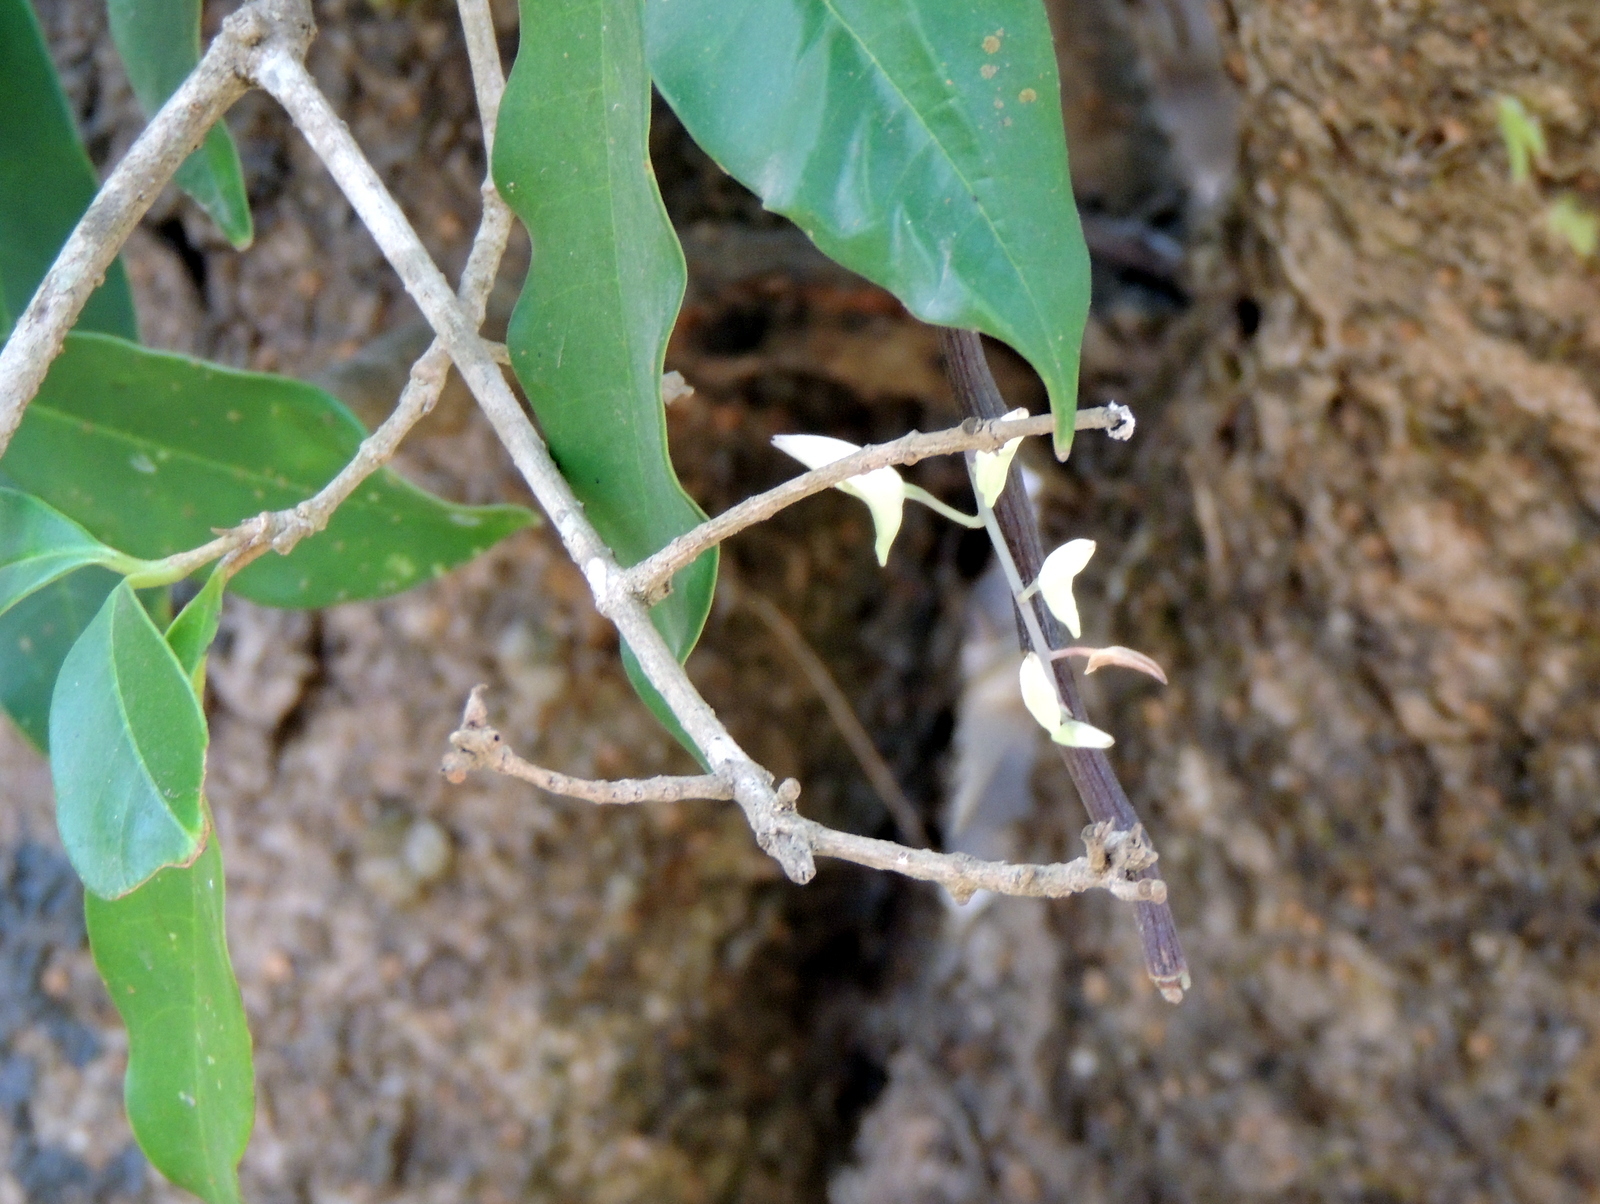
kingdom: Plantae
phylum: Tracheophyta
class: Liliopsida
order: Asparagales
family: Orchidaceae
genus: Dendrobium
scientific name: Dendrobium barbatulum
